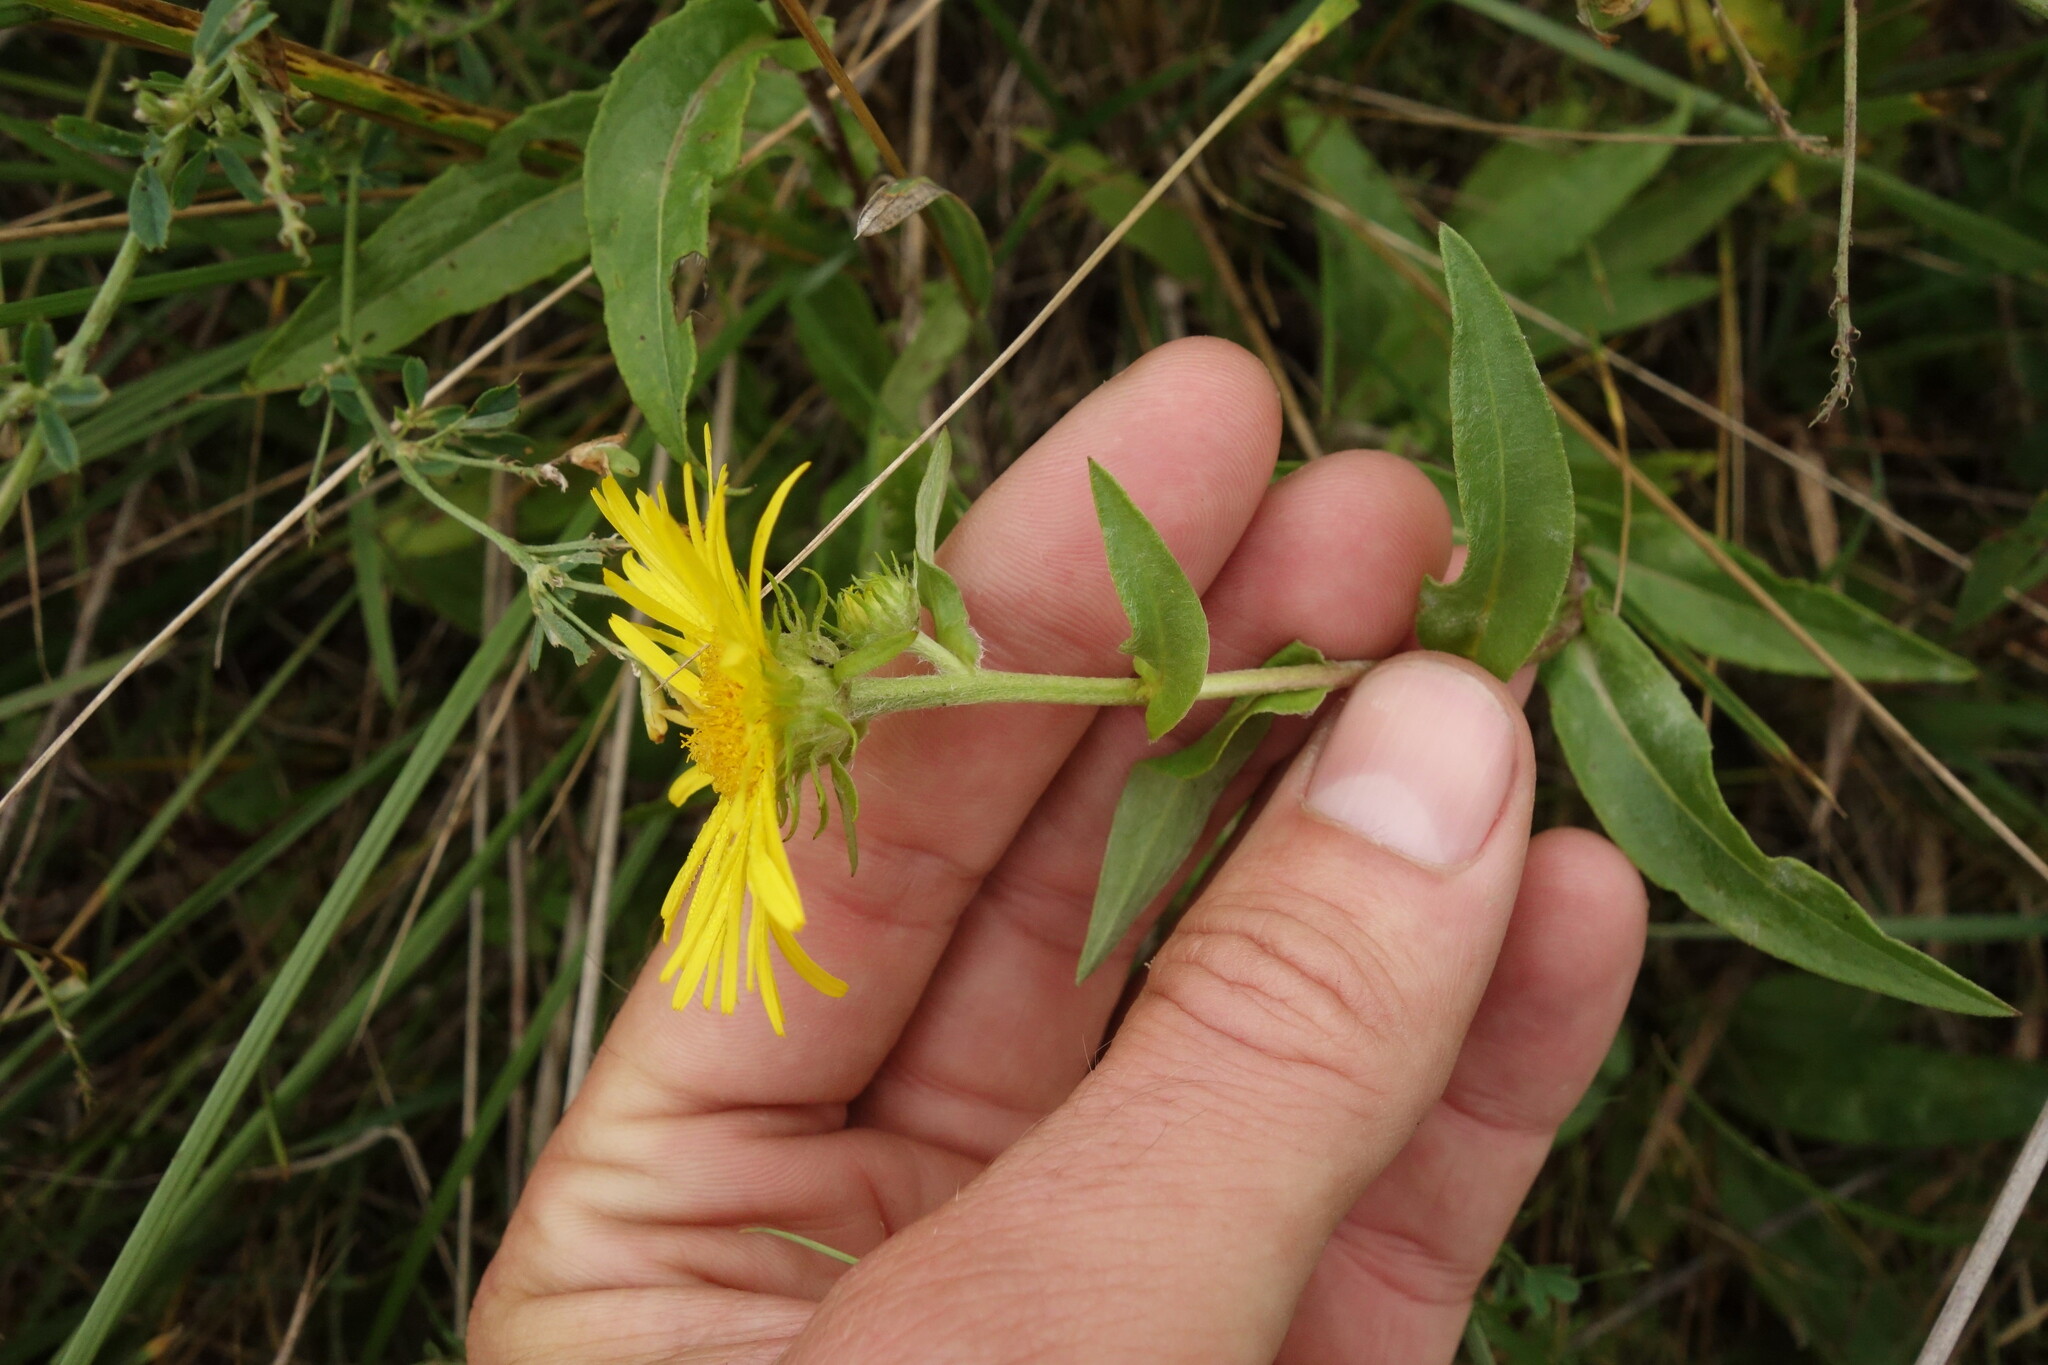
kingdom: Plantae
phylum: Tracheophyta
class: Magnoliopsida
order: Asterales
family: Asteraceae
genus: Pentanema
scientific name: Pentanema britannicum
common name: British elecampane
